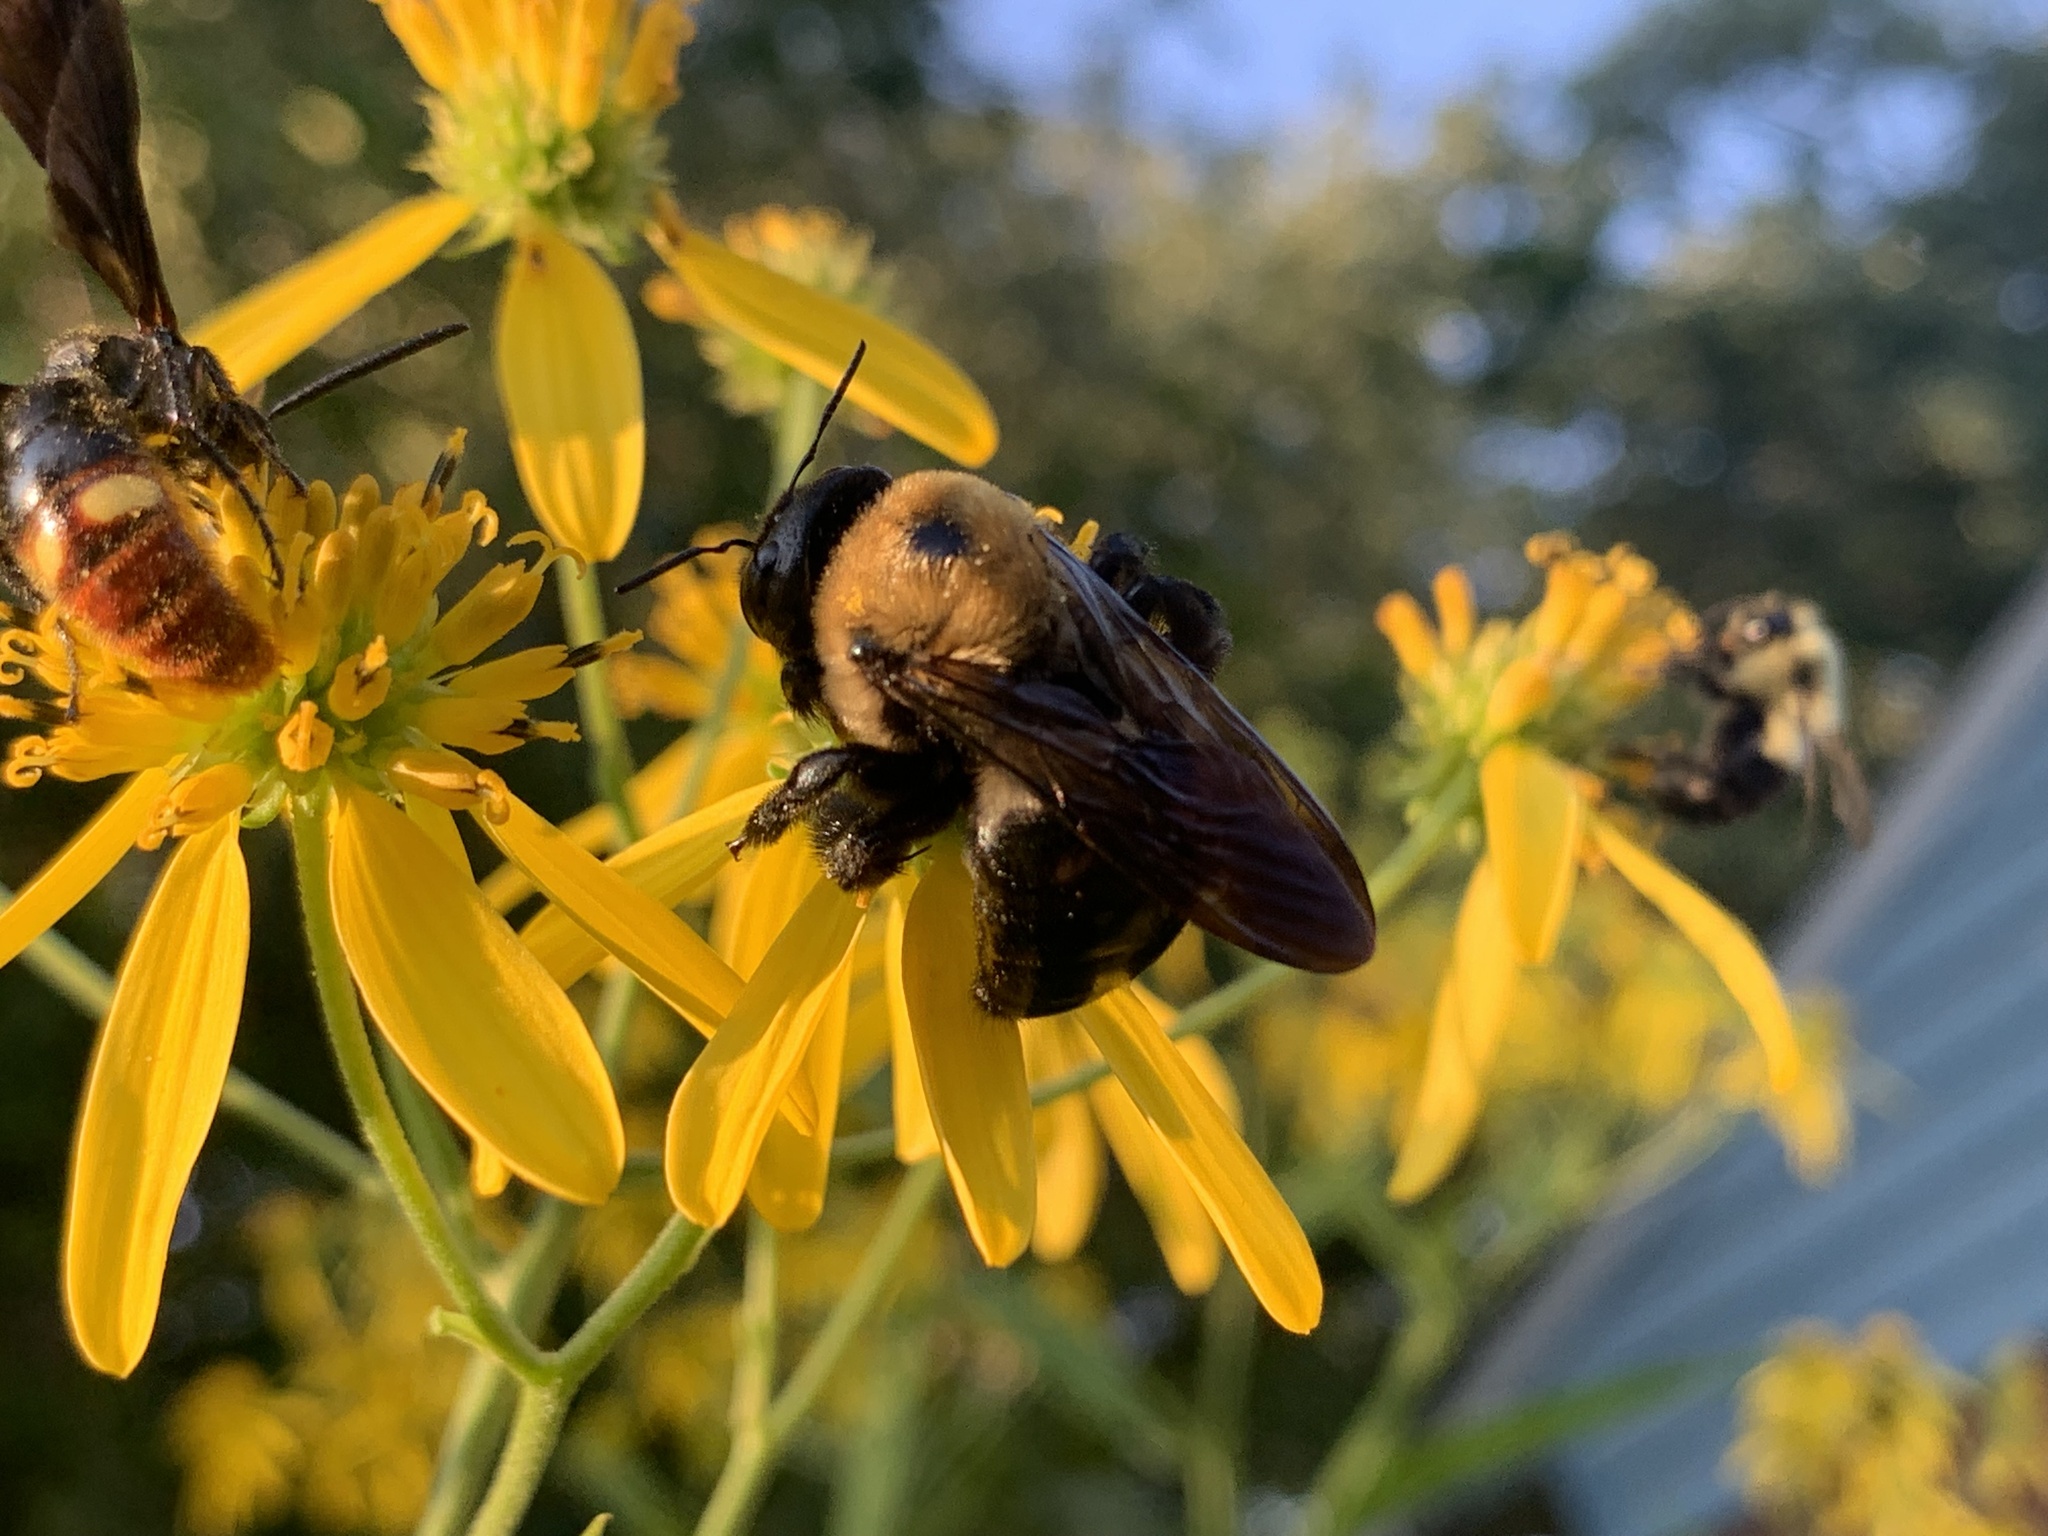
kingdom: Animalia
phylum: Arthropoda
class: Insecta
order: Hymenoptera
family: Apidae
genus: Xylocopa
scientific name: Xylocopa virginica
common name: Carpenter bee
